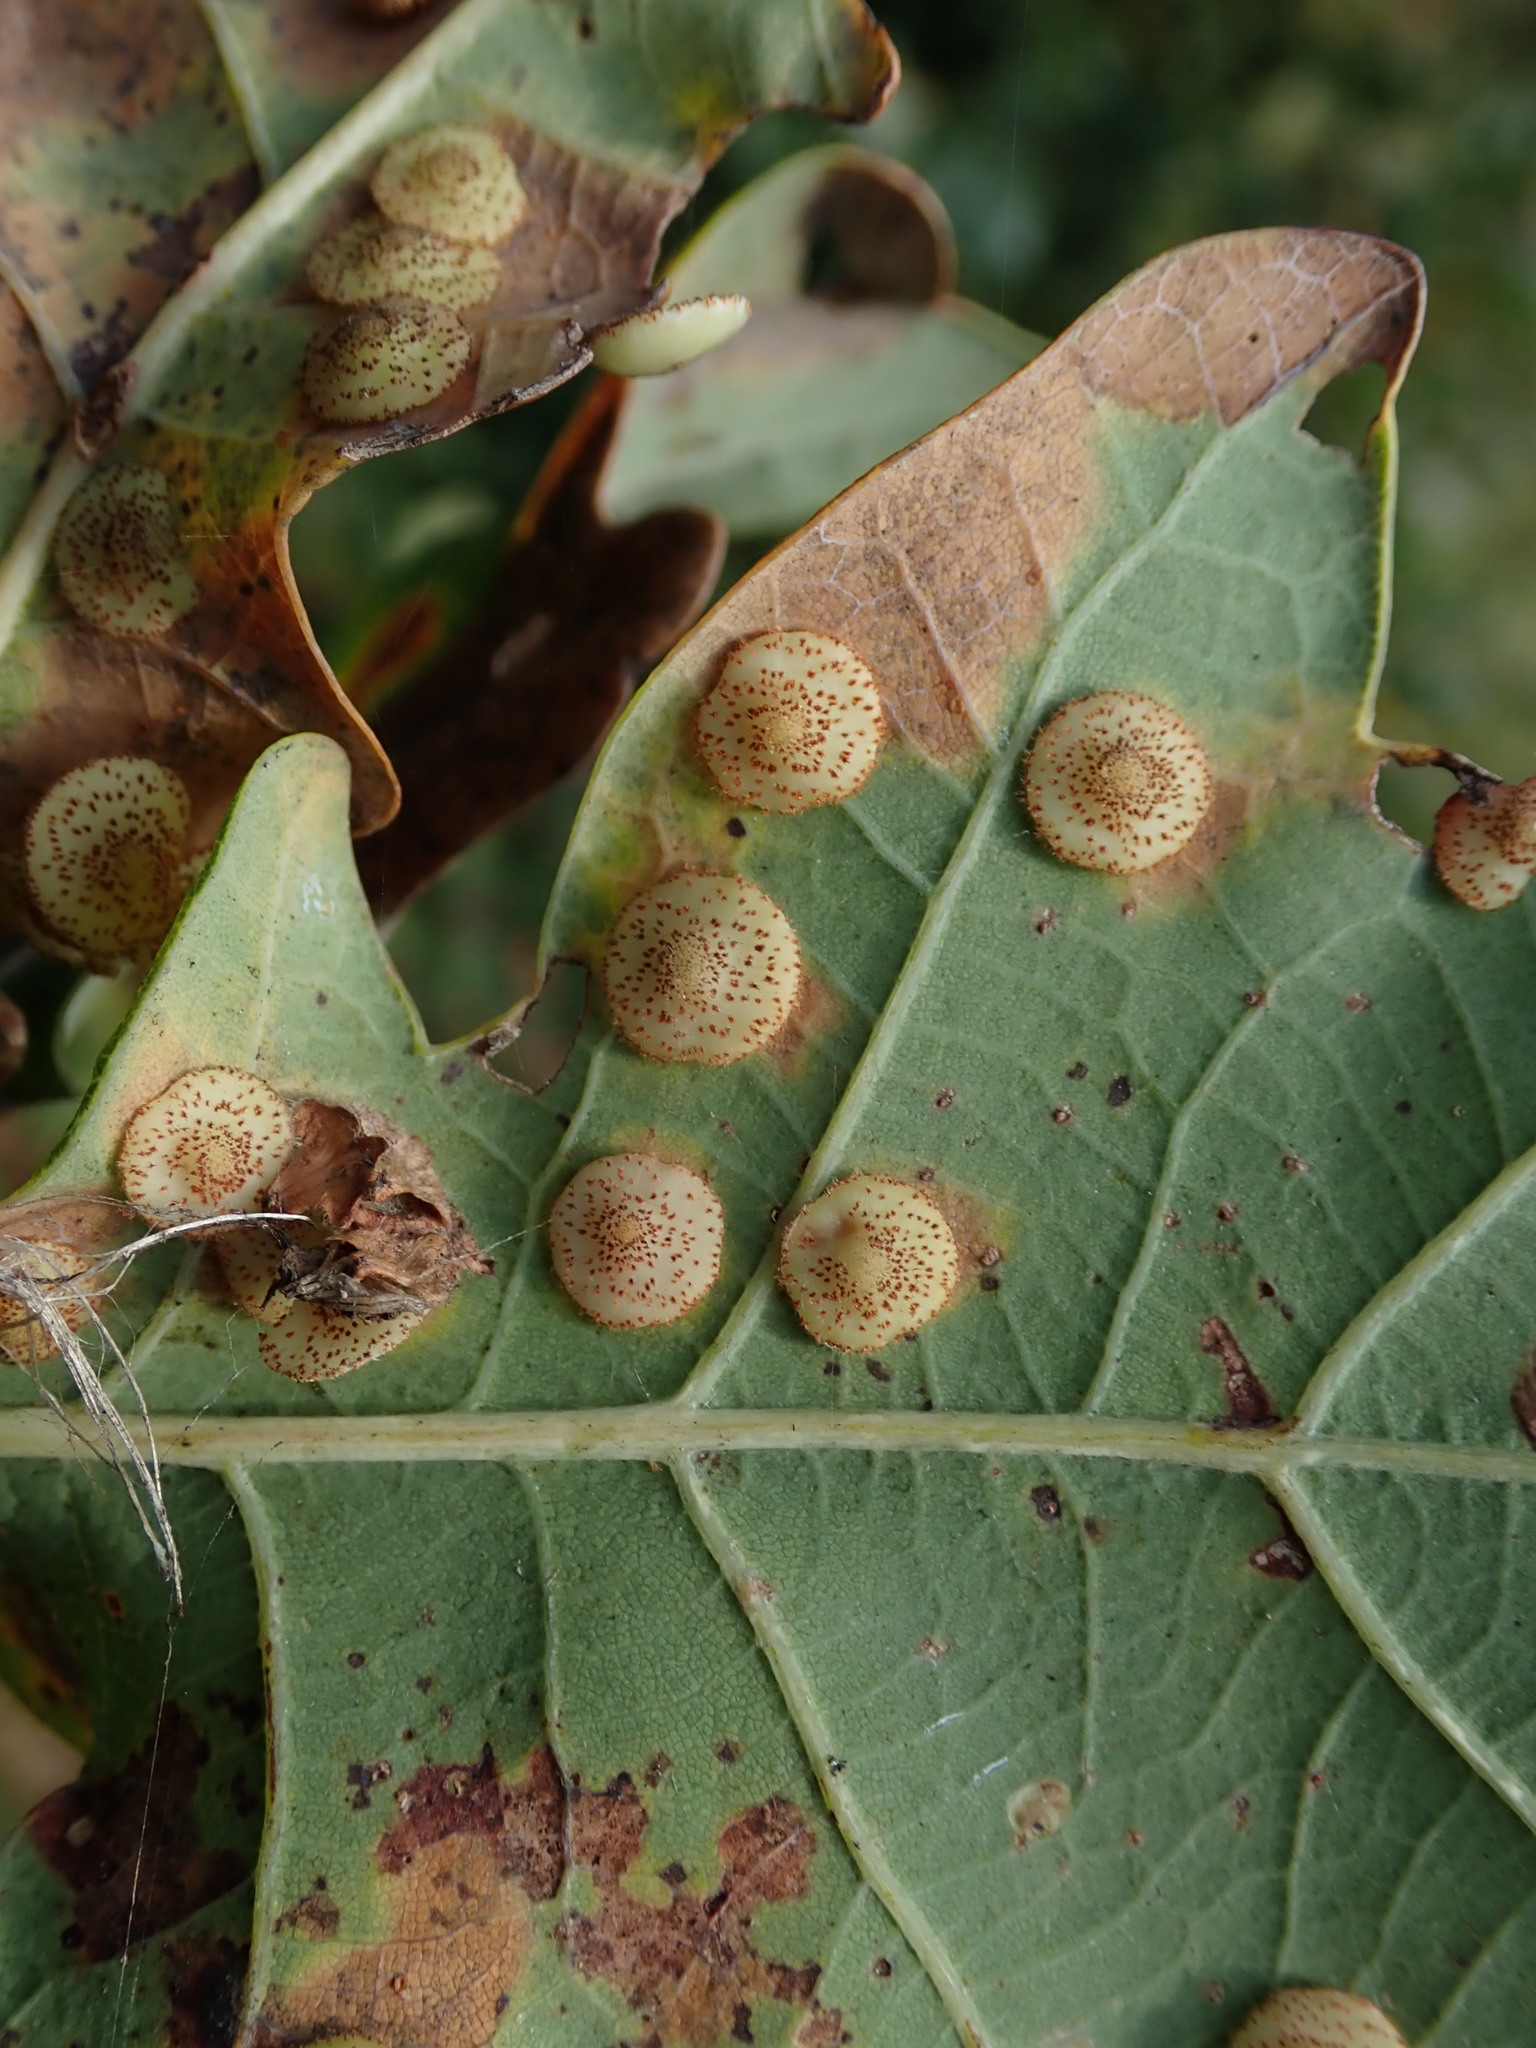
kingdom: Animalia
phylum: Arthropoda
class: Insecta
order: Hymenoptera
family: Cynipidae
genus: Neuroterus
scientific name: Neuroterus quercusbaccarum
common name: Common spangle gall
